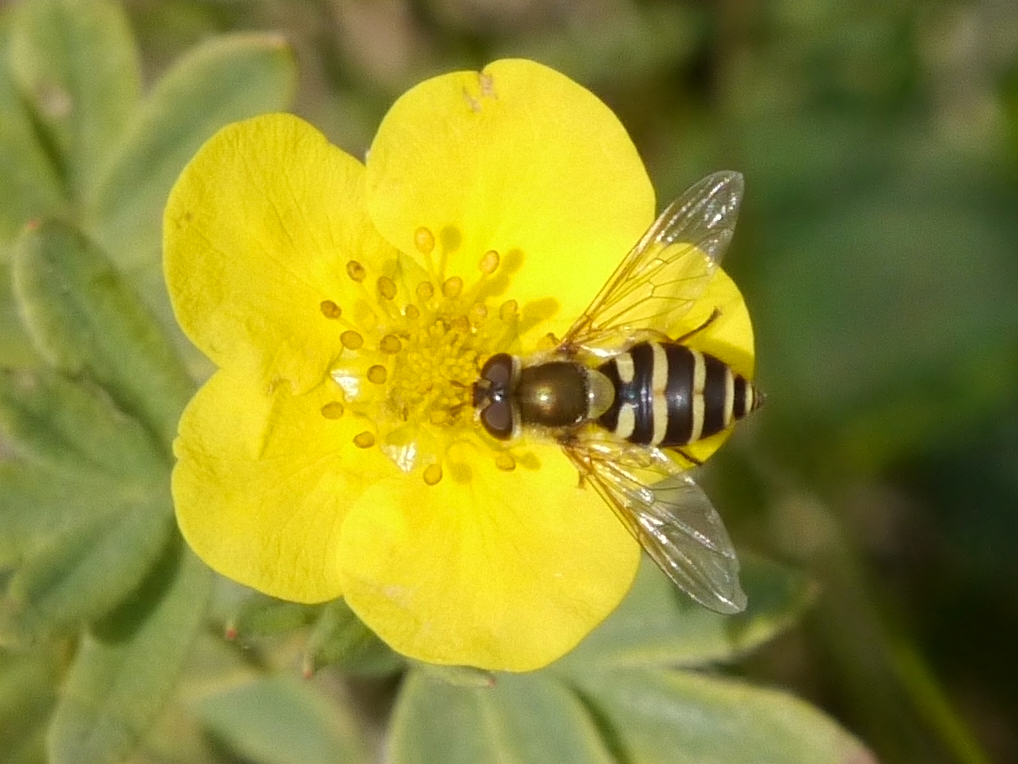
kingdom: Animalia
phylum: Arthropoda
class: Insecta
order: Diptera
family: Syrphidae
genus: Syrphus
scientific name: Syrphus
